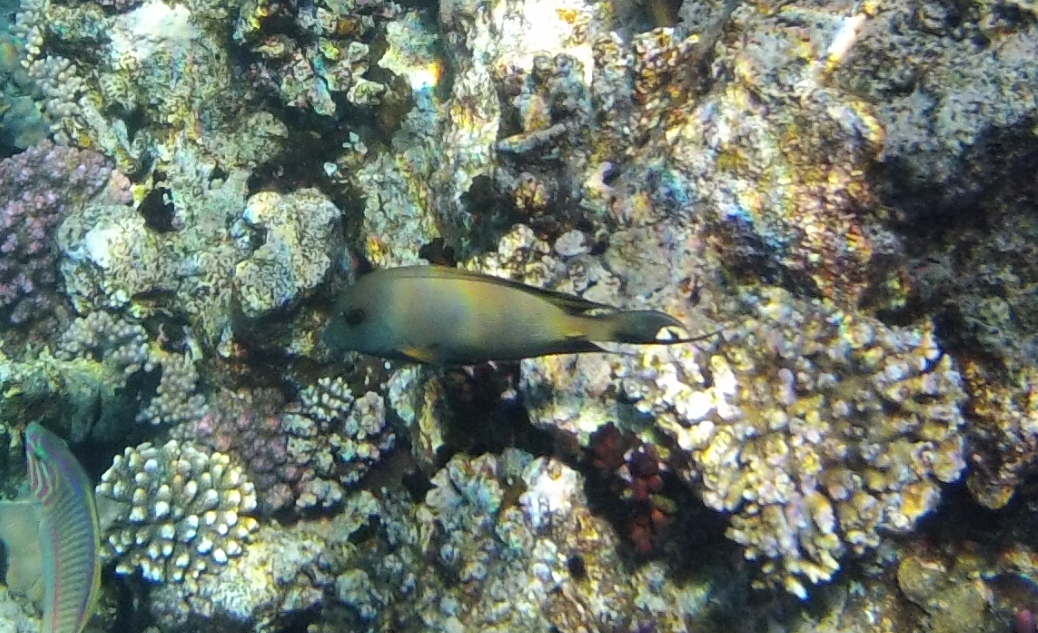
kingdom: Animalia
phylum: Chordata
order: Perciformes
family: Acanthuridae
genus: Ctenochaetus
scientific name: Ctenochaetus striatus
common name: Bristle-toothed surgeonfish
